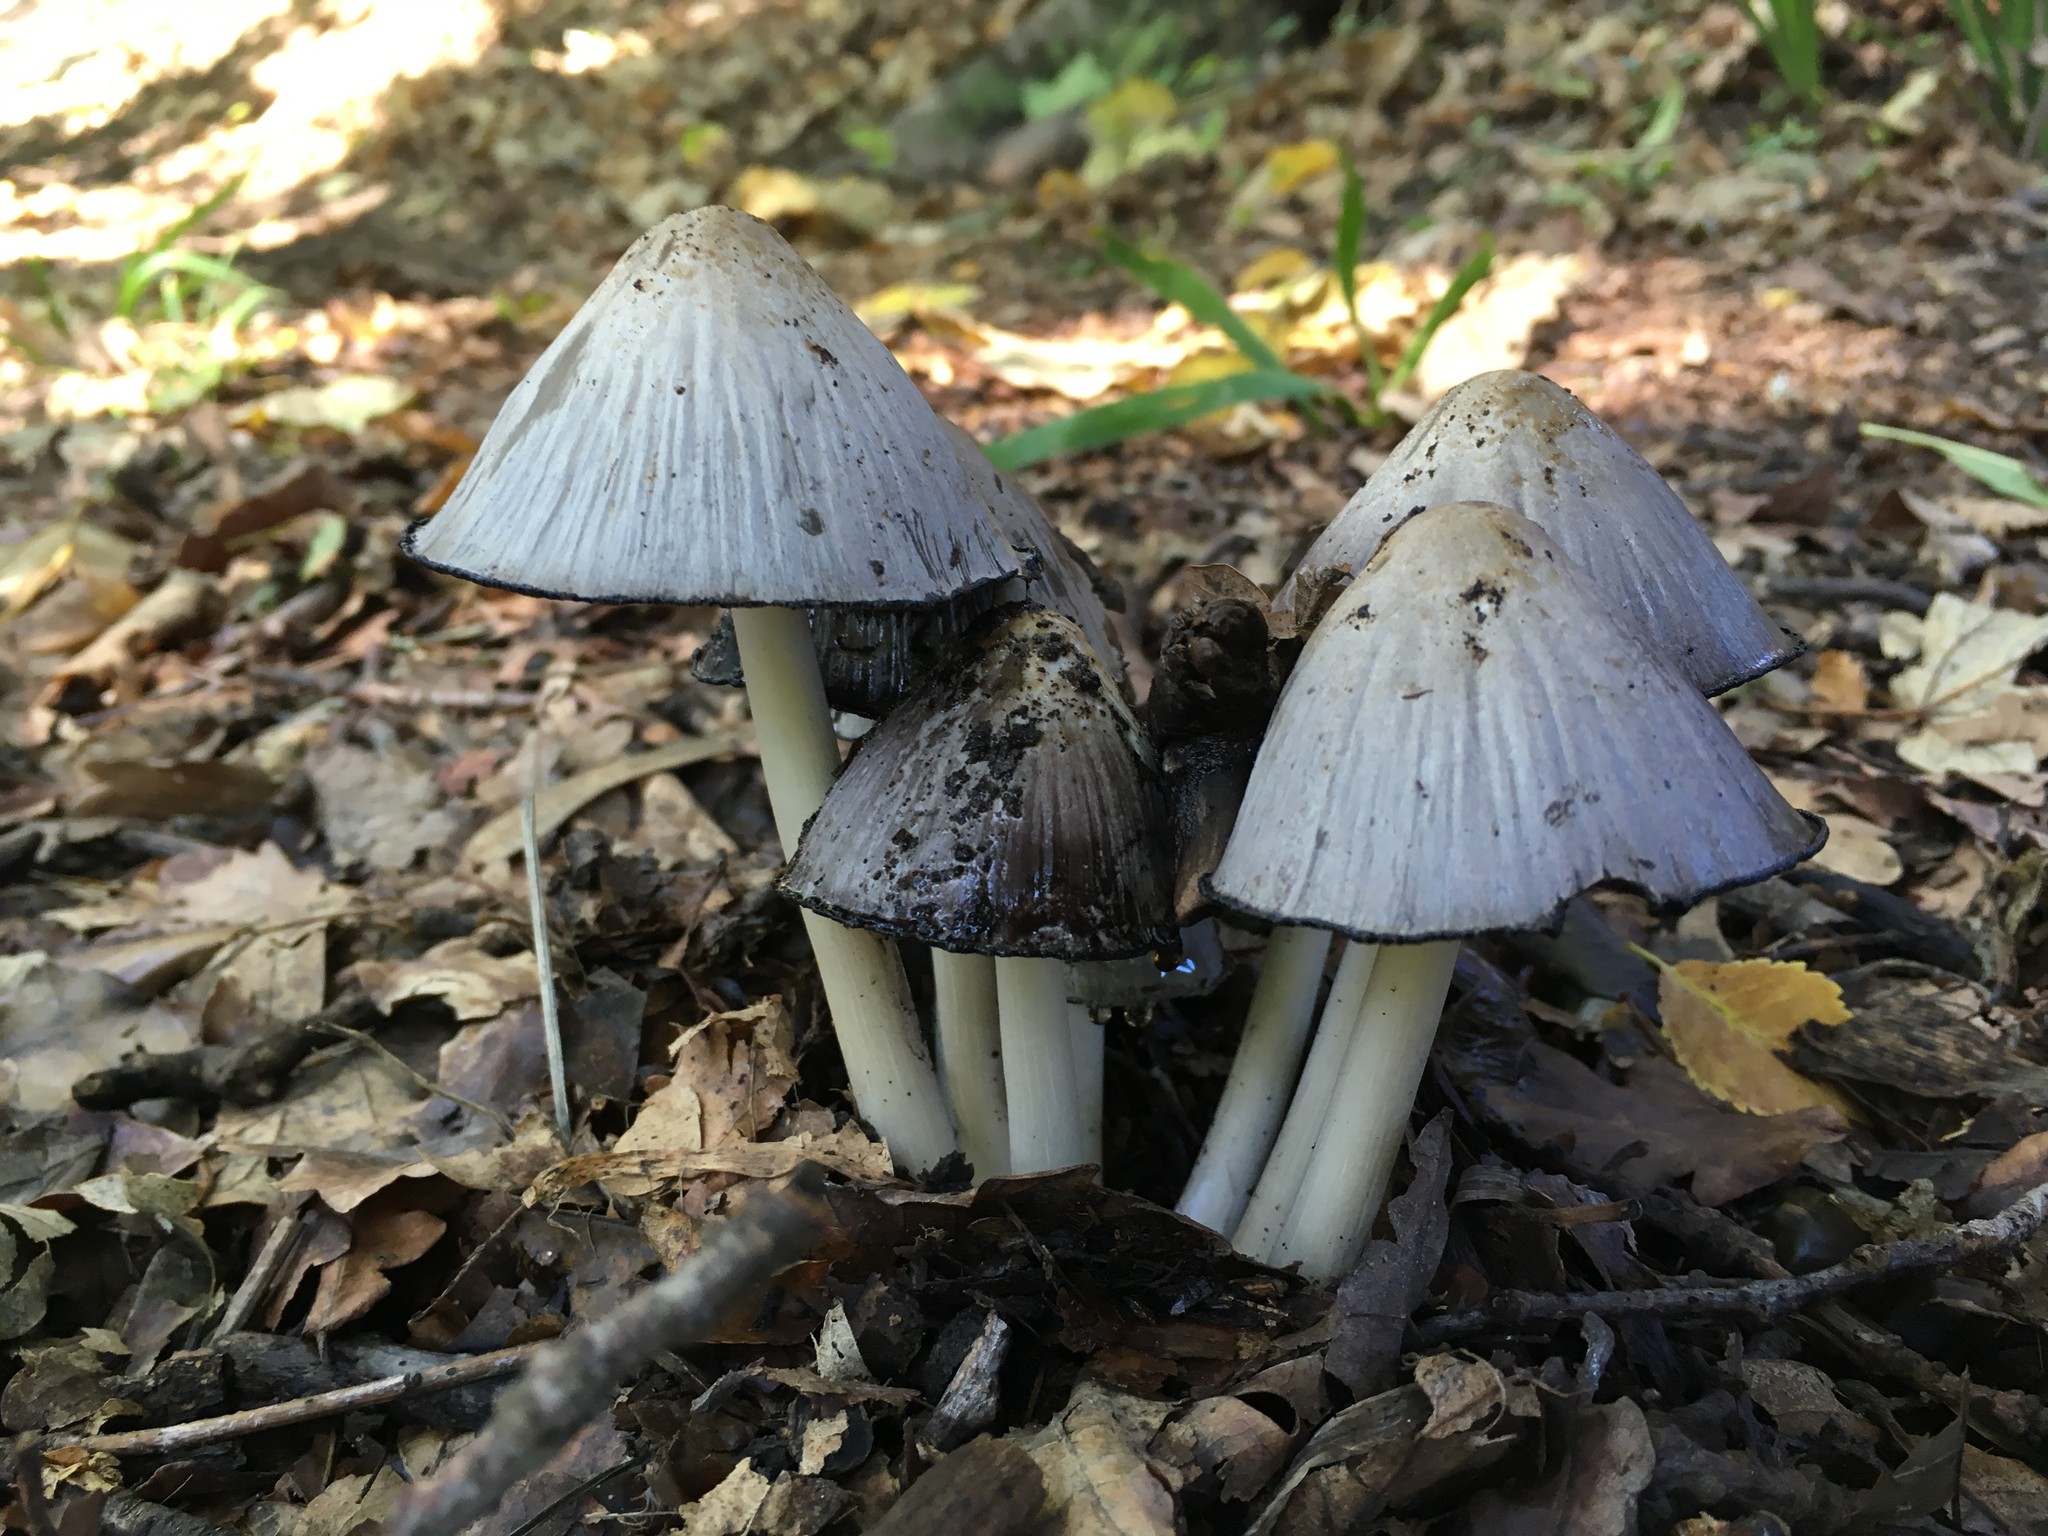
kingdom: Fungi
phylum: Basidiomycota
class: Agaricomycetes
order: Agaricales
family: Psathyrellaceae
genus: Coprinopsis
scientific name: Coprinopsis atramentaria
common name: Common ink-cap
